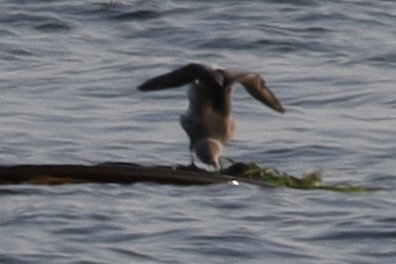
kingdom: Animalia
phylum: Chordata
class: Aves
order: Charadriiformes
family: Laridae
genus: Larus
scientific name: Larus heermanni
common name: Heermann's gull
